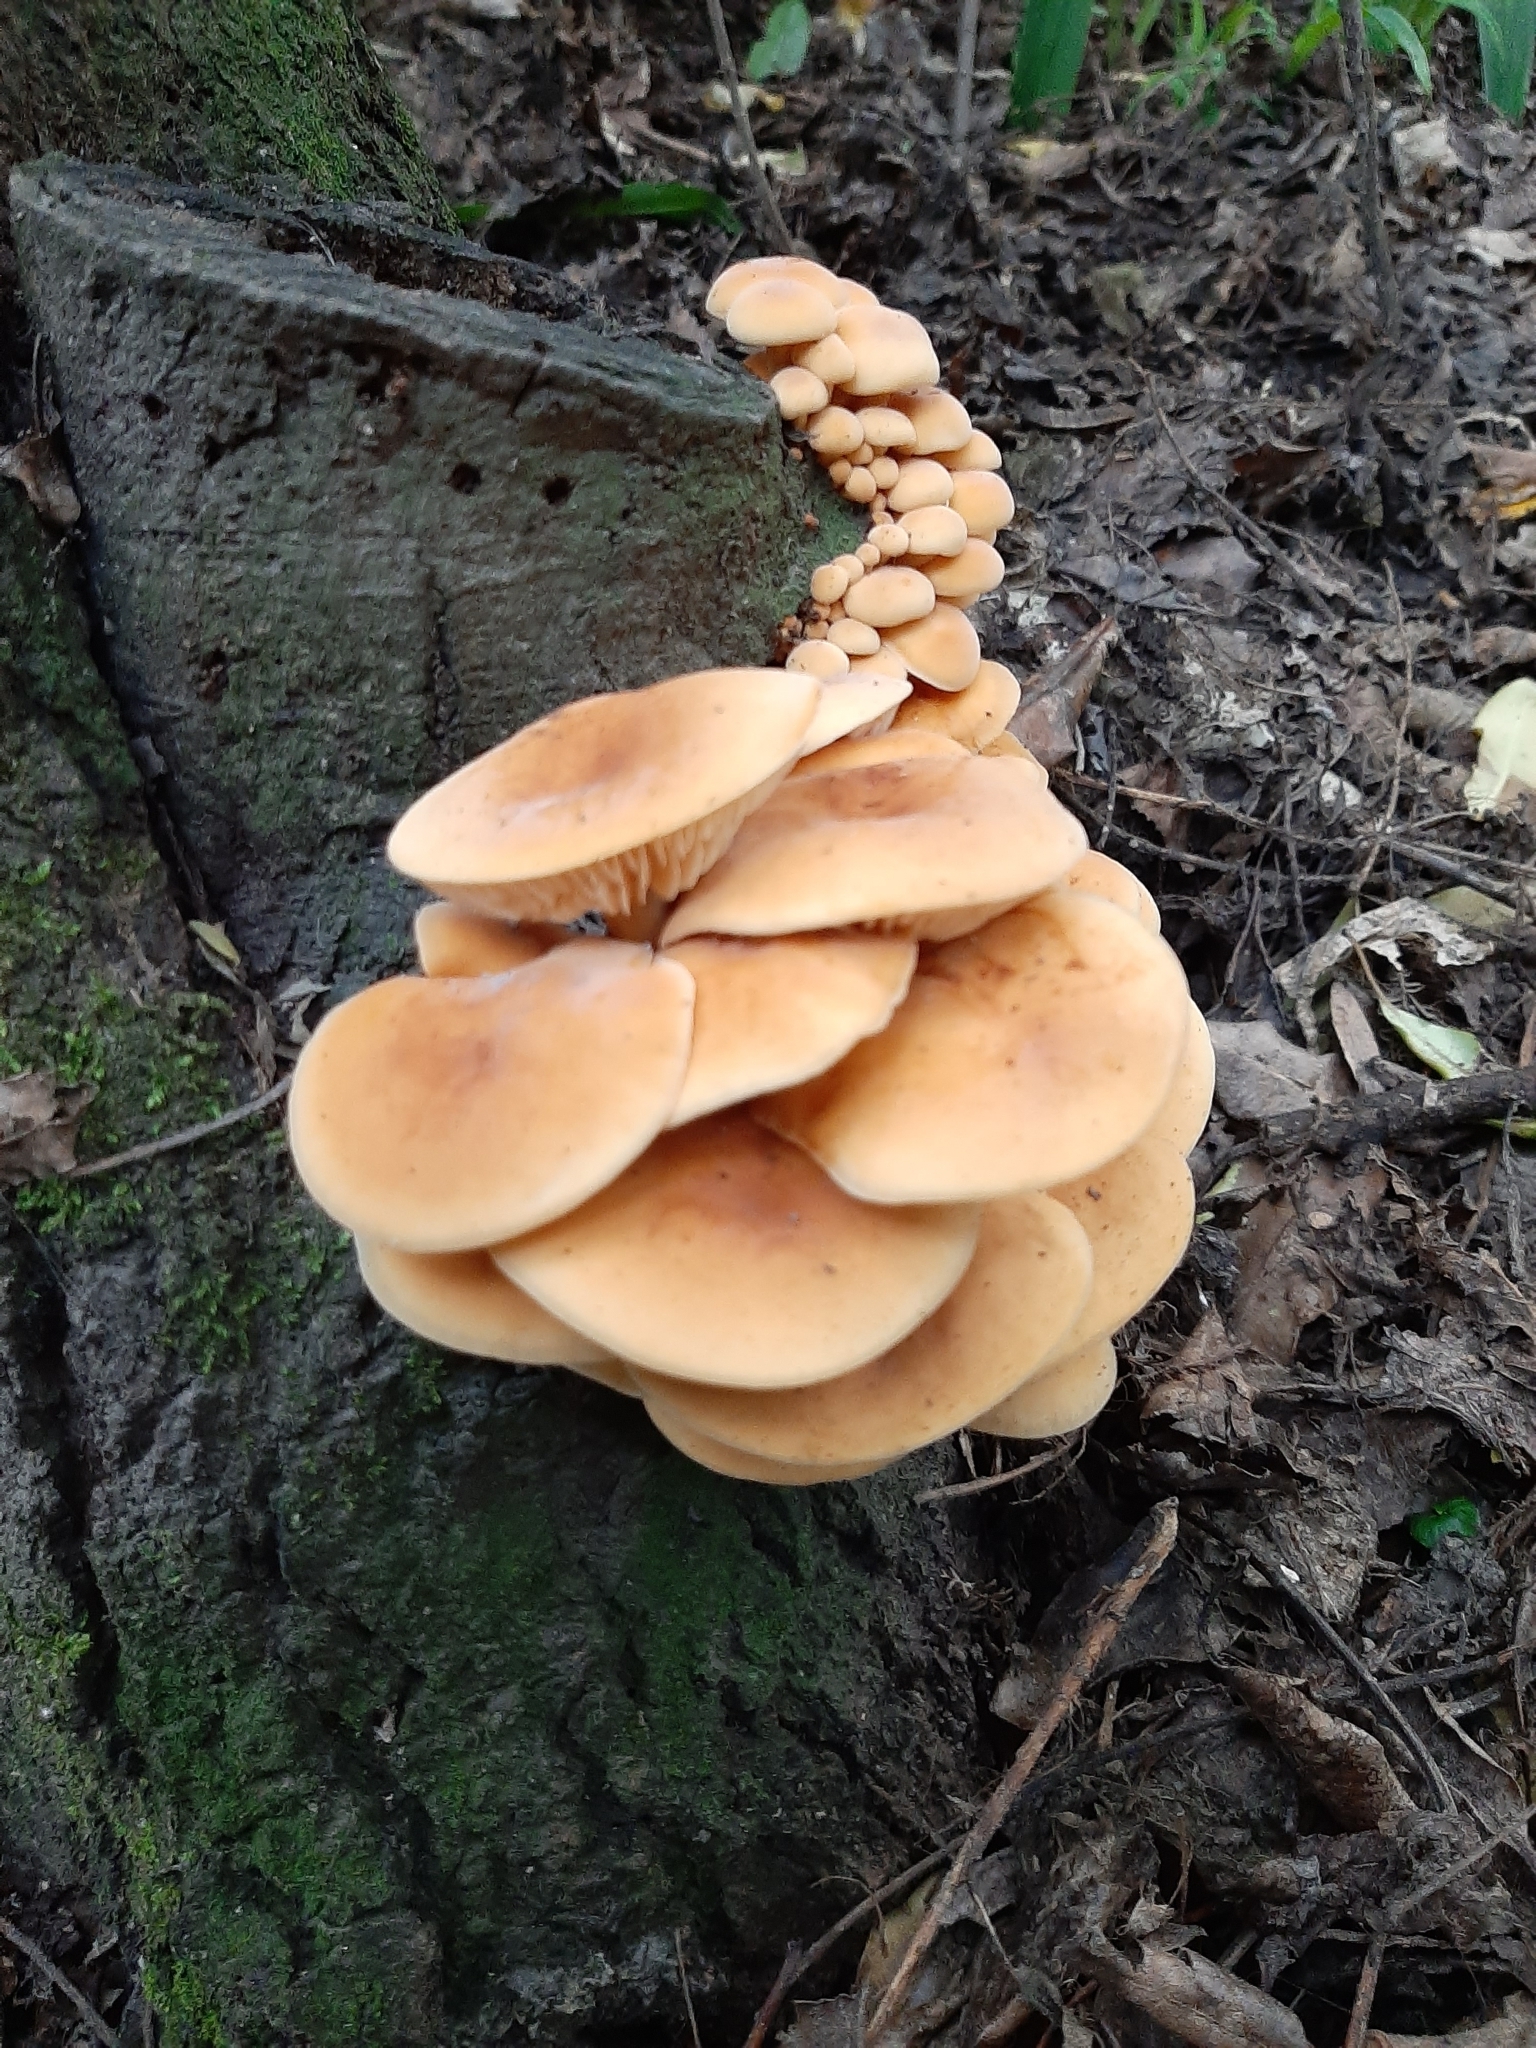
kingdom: Fungi
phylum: Basidiomycota
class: Agaricomycetes
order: Agaricales
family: Physalacriaceae
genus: Flammulina
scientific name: Flammulina velutipes
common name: Velvet shank
